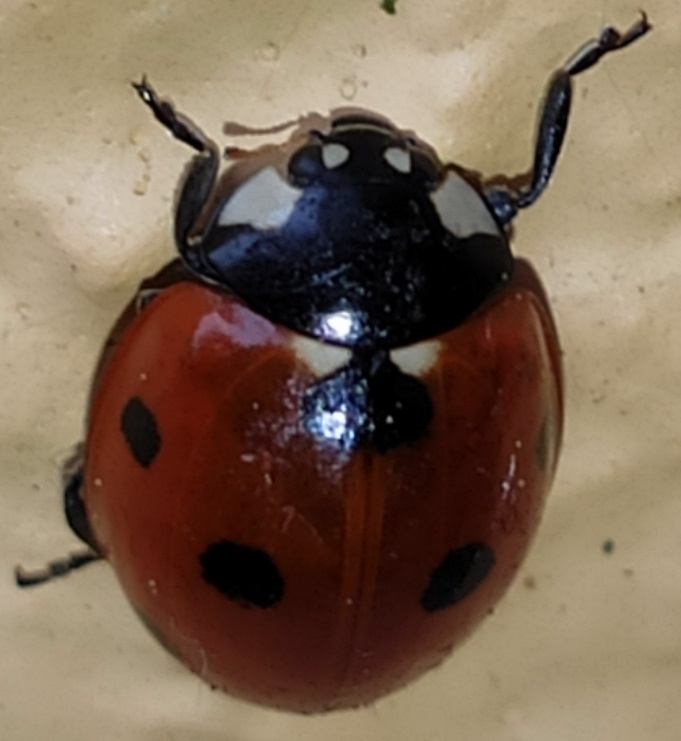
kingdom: Animalia
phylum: Arthropoda
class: Insecta
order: Coleoptera
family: Coccinellidae
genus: Coccinella
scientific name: Coccinella septempunctata
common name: Sevenspotted lady beetle
